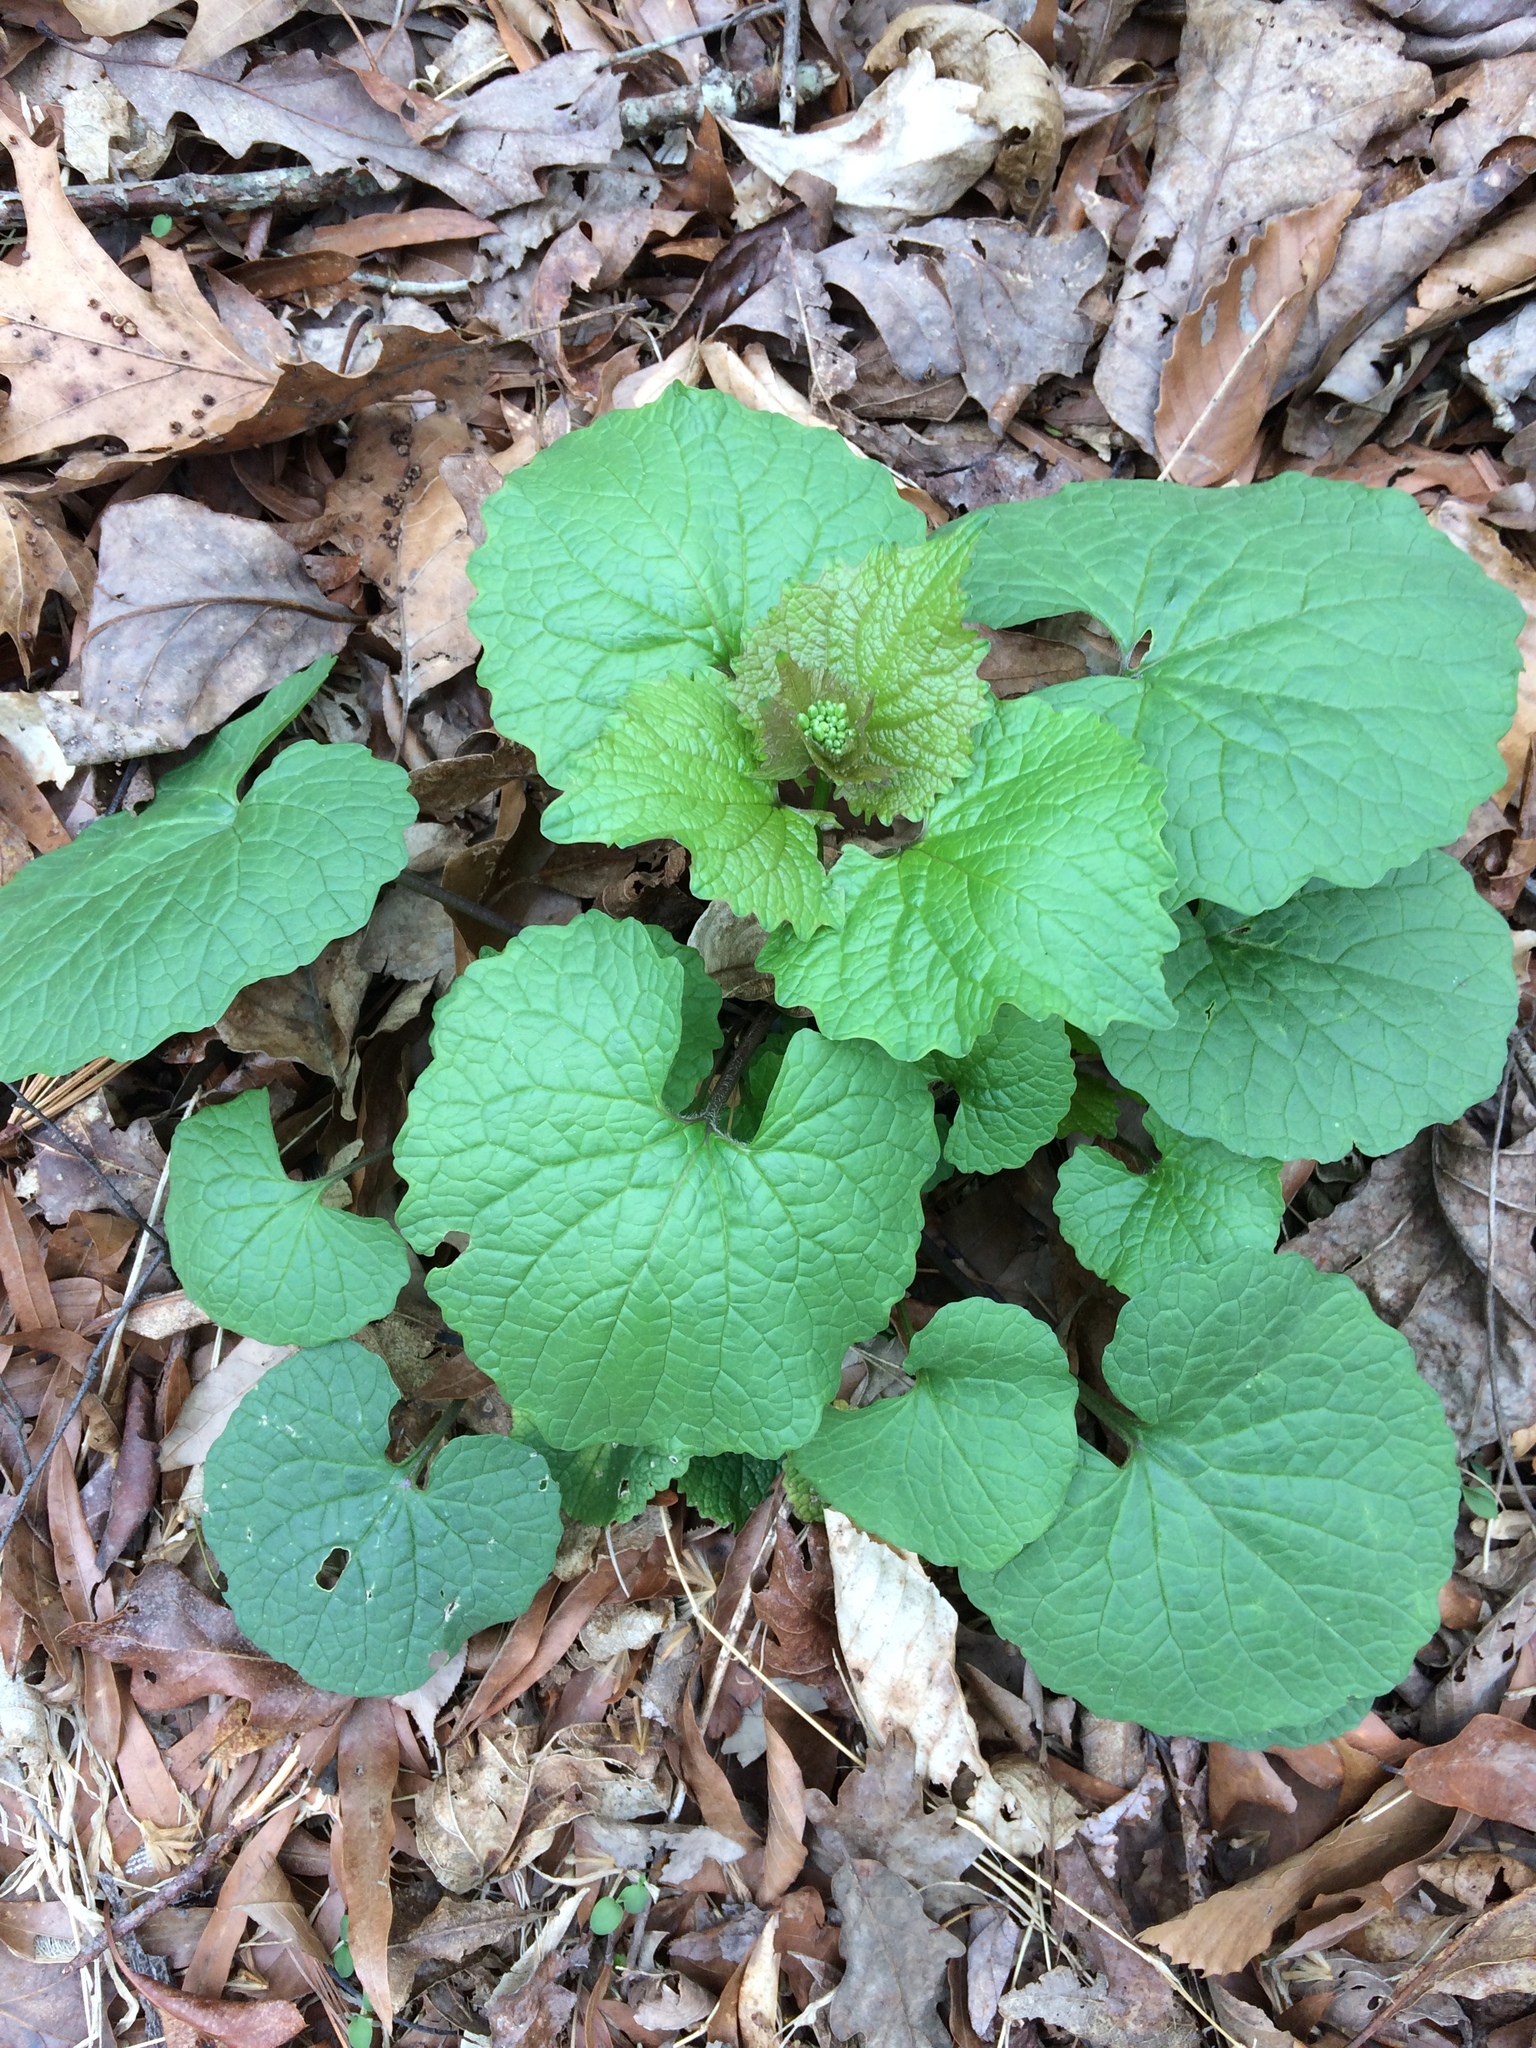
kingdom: Plantae
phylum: Tracheophyta
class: Magnoliopsida
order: Brassicales
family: Brassicaceae
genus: Alliaria
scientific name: Alliaria petiolata
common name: Garlic mustard
